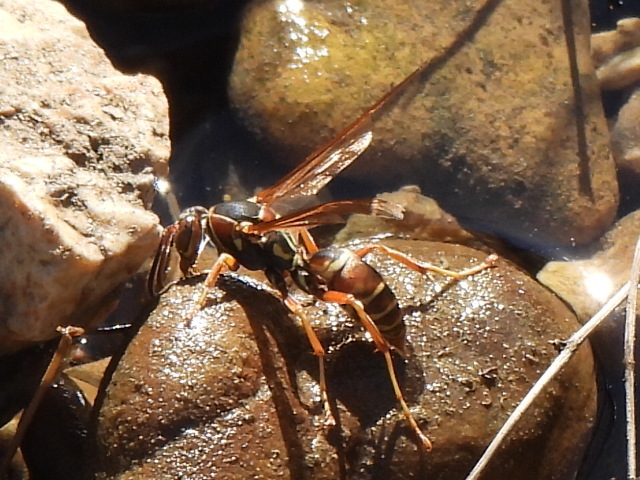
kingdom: Animalia
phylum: Arthropoda
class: Insecta
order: Hymenoptera
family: Eumenidae
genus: Polistes
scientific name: Polistes fuscatus
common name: Dark paper wasp
